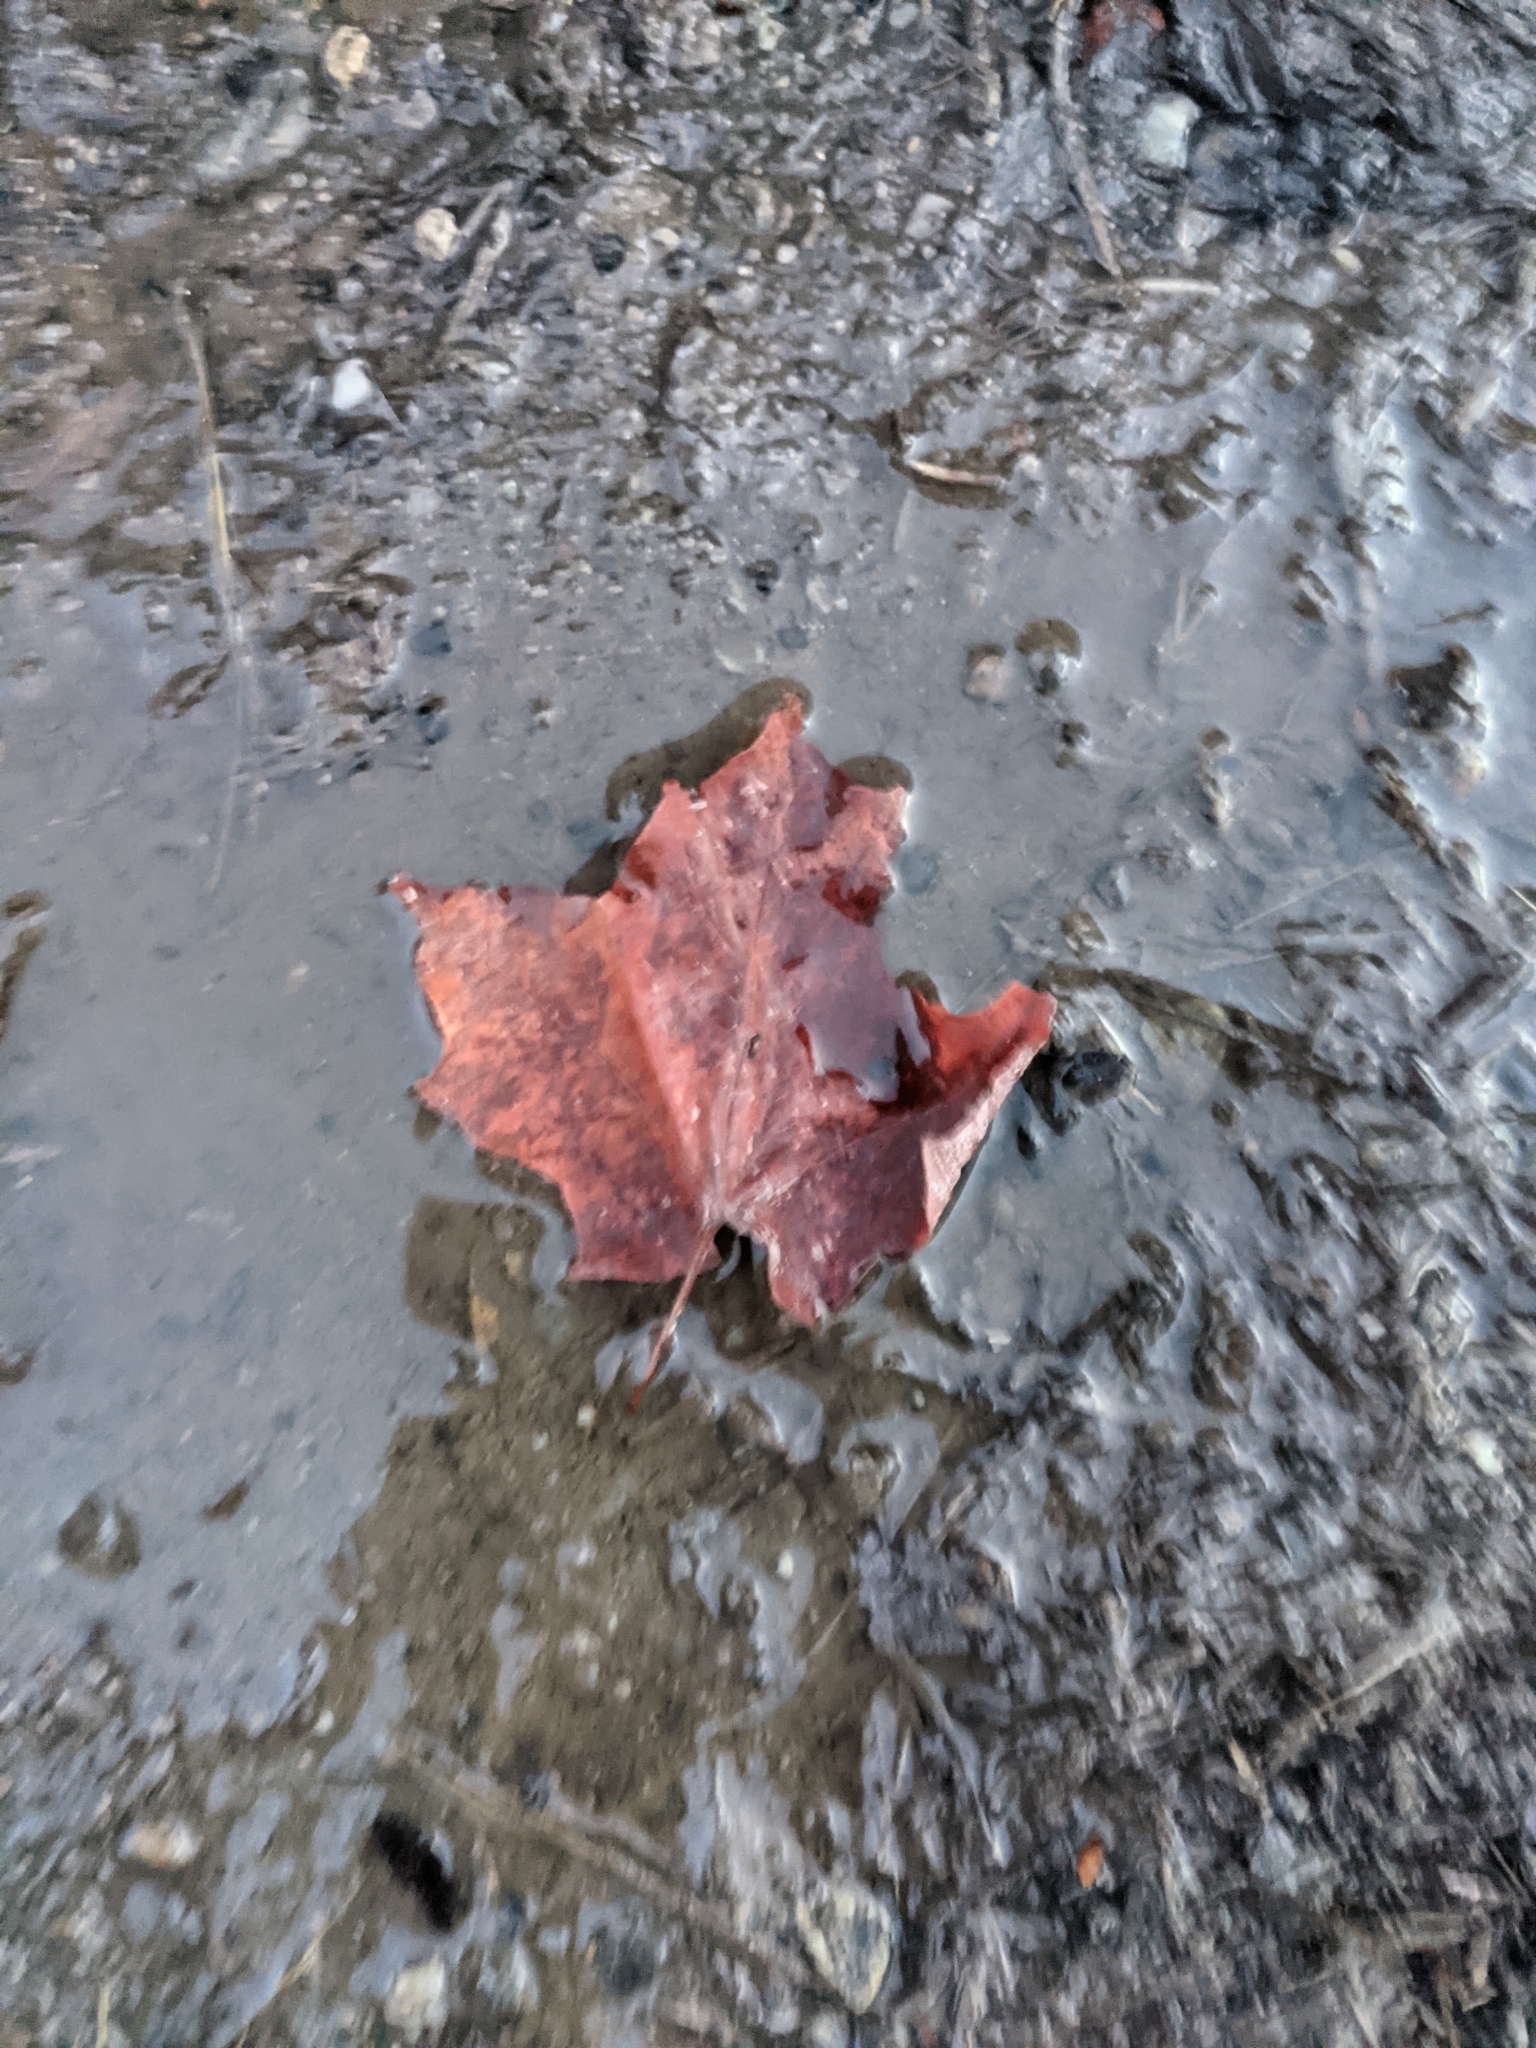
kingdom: Plantae
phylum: Tracheophyta
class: Magnoliopsida
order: Sapindales
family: Sapindaceae
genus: Acer
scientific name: Acer rubrum
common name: Red maple
